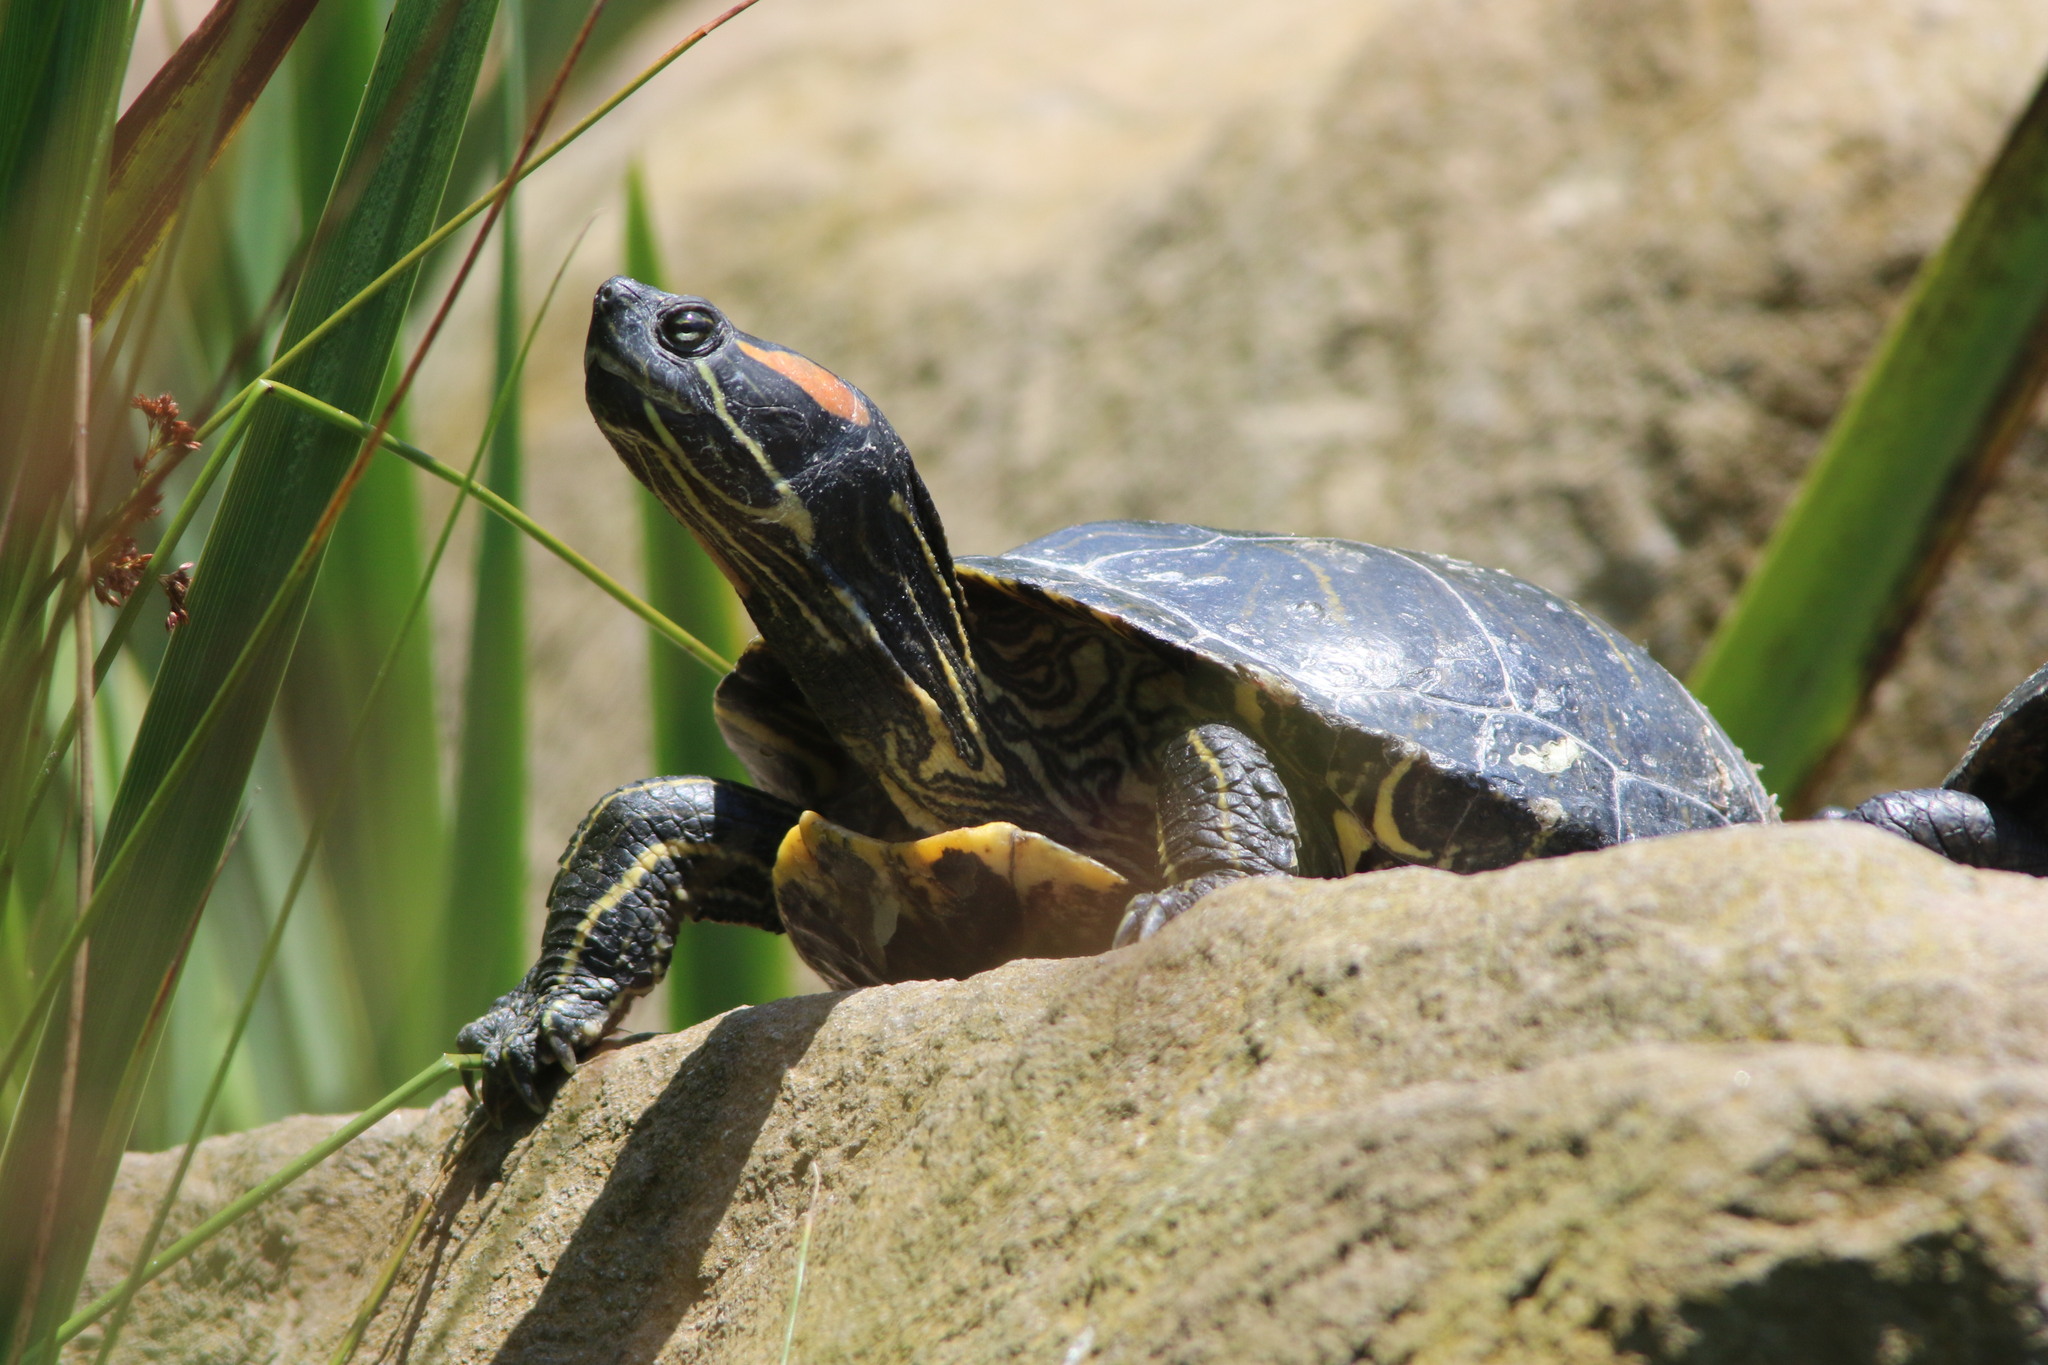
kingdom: Animalia
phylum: Chordata
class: Testudines
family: Emydidae
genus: Trachemys
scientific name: Trachemys scripta
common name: Slider
